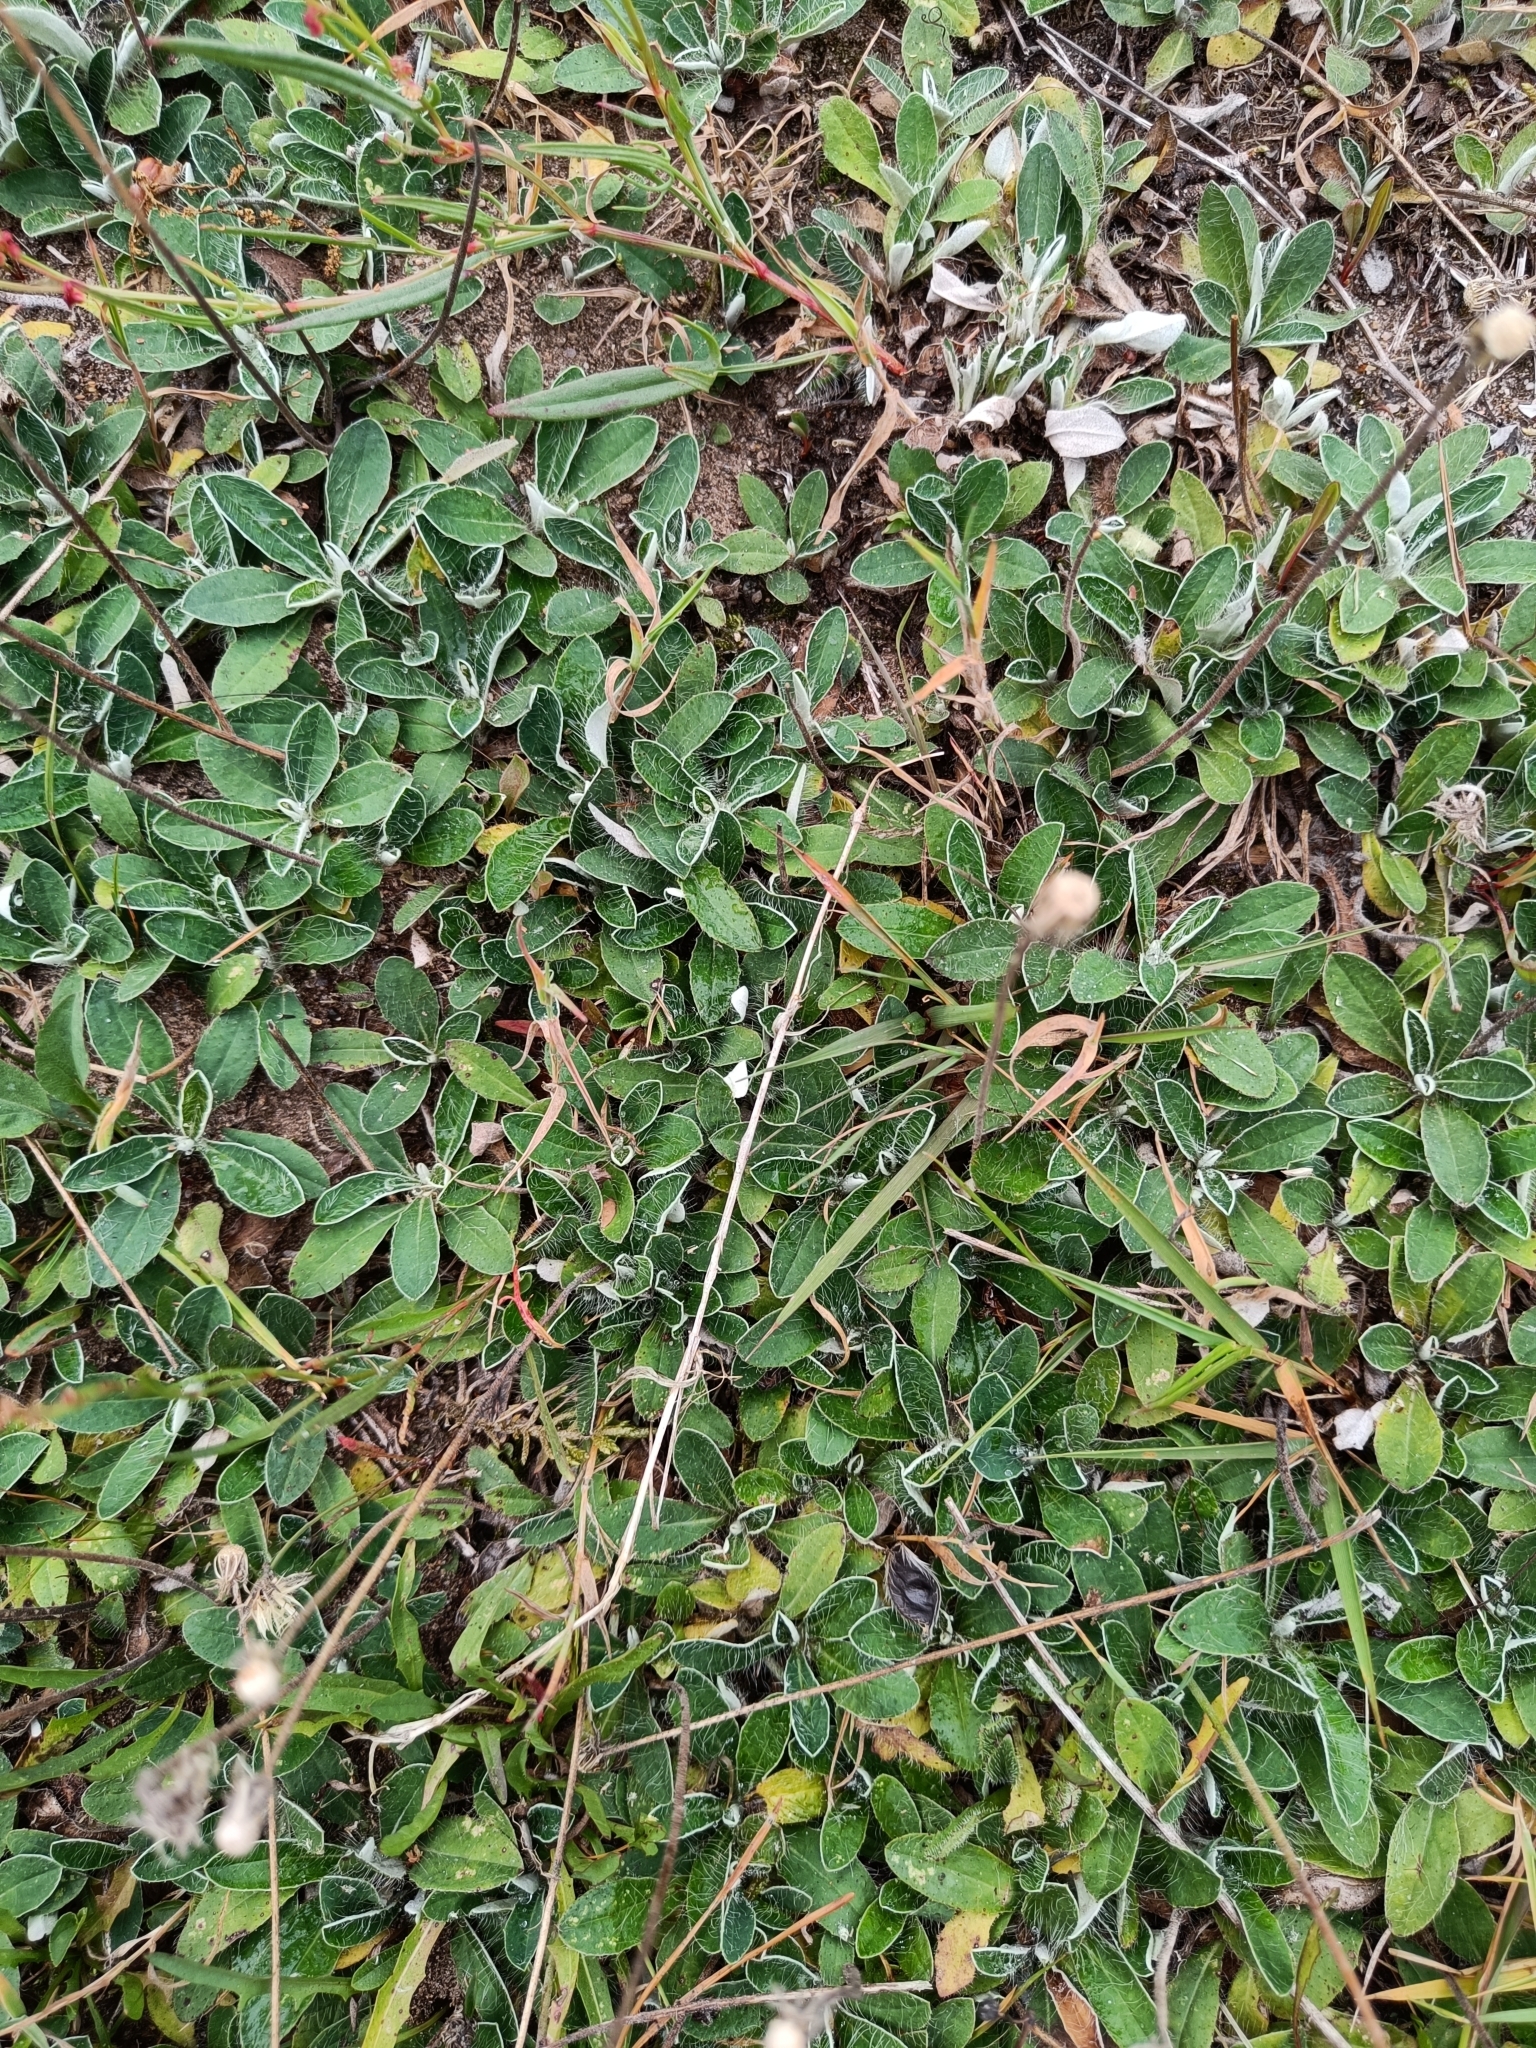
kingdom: Plantae
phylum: Tracheophyta
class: Magnoliopsida
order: Asterales
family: Asteraceae
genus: Pilosella
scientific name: Pilosella officinarum
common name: Mouse-ear hawkweed
